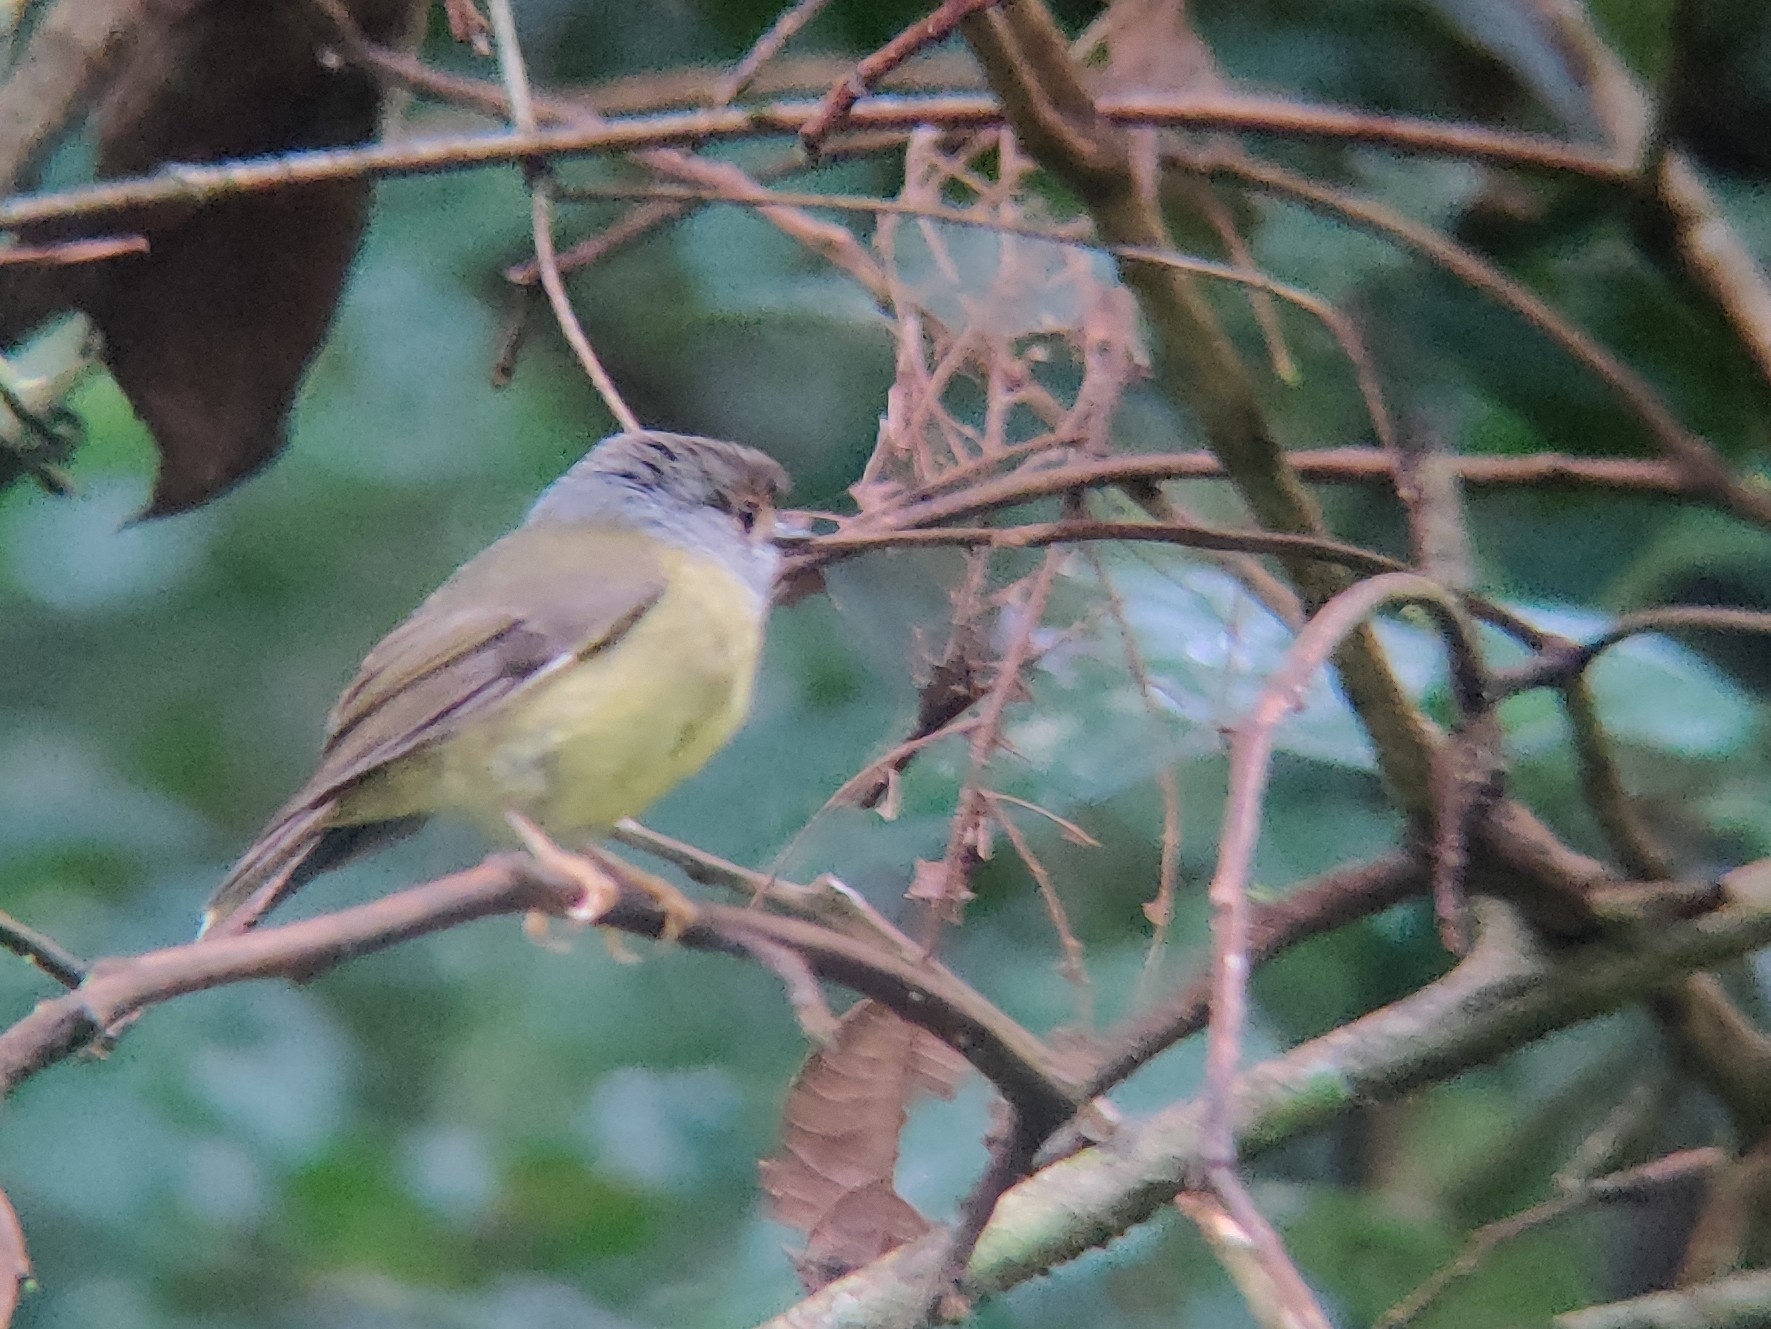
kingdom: Animalia
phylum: Chordata
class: Aves
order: Passeriformes
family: Petroicidae
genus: Eopsaltria
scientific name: Eopsaltria
